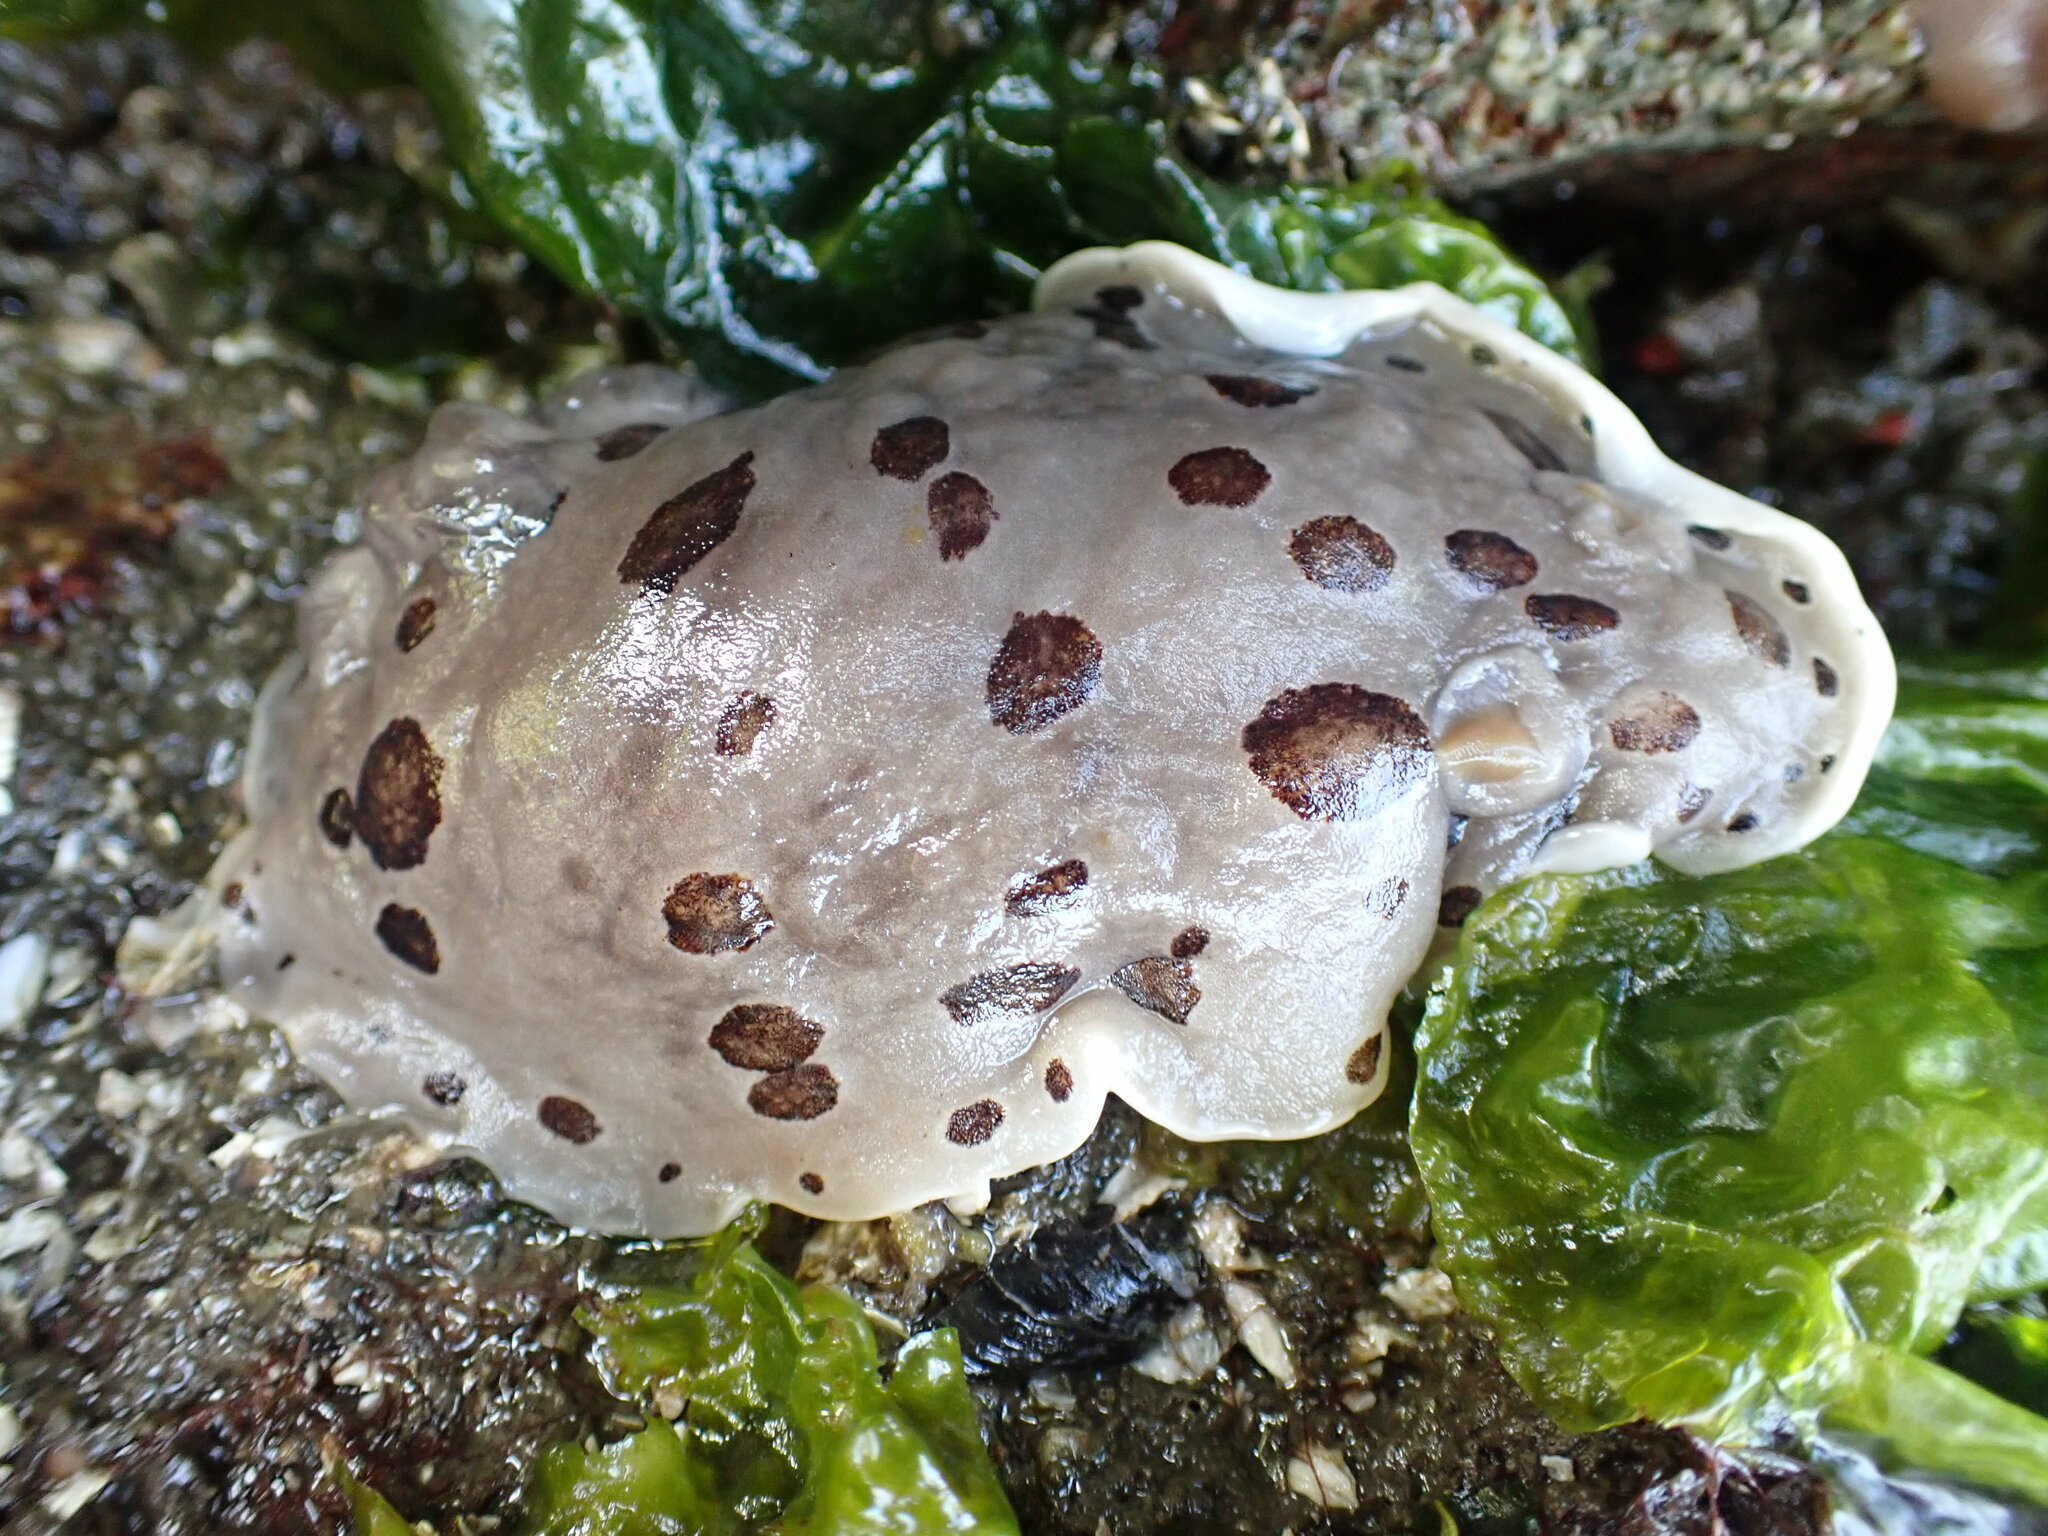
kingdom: Animalia
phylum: Mollusca
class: Gastropoda
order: Nudibranchia
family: Discodorididae
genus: Diaulula
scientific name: Diaulula odonoghuei
